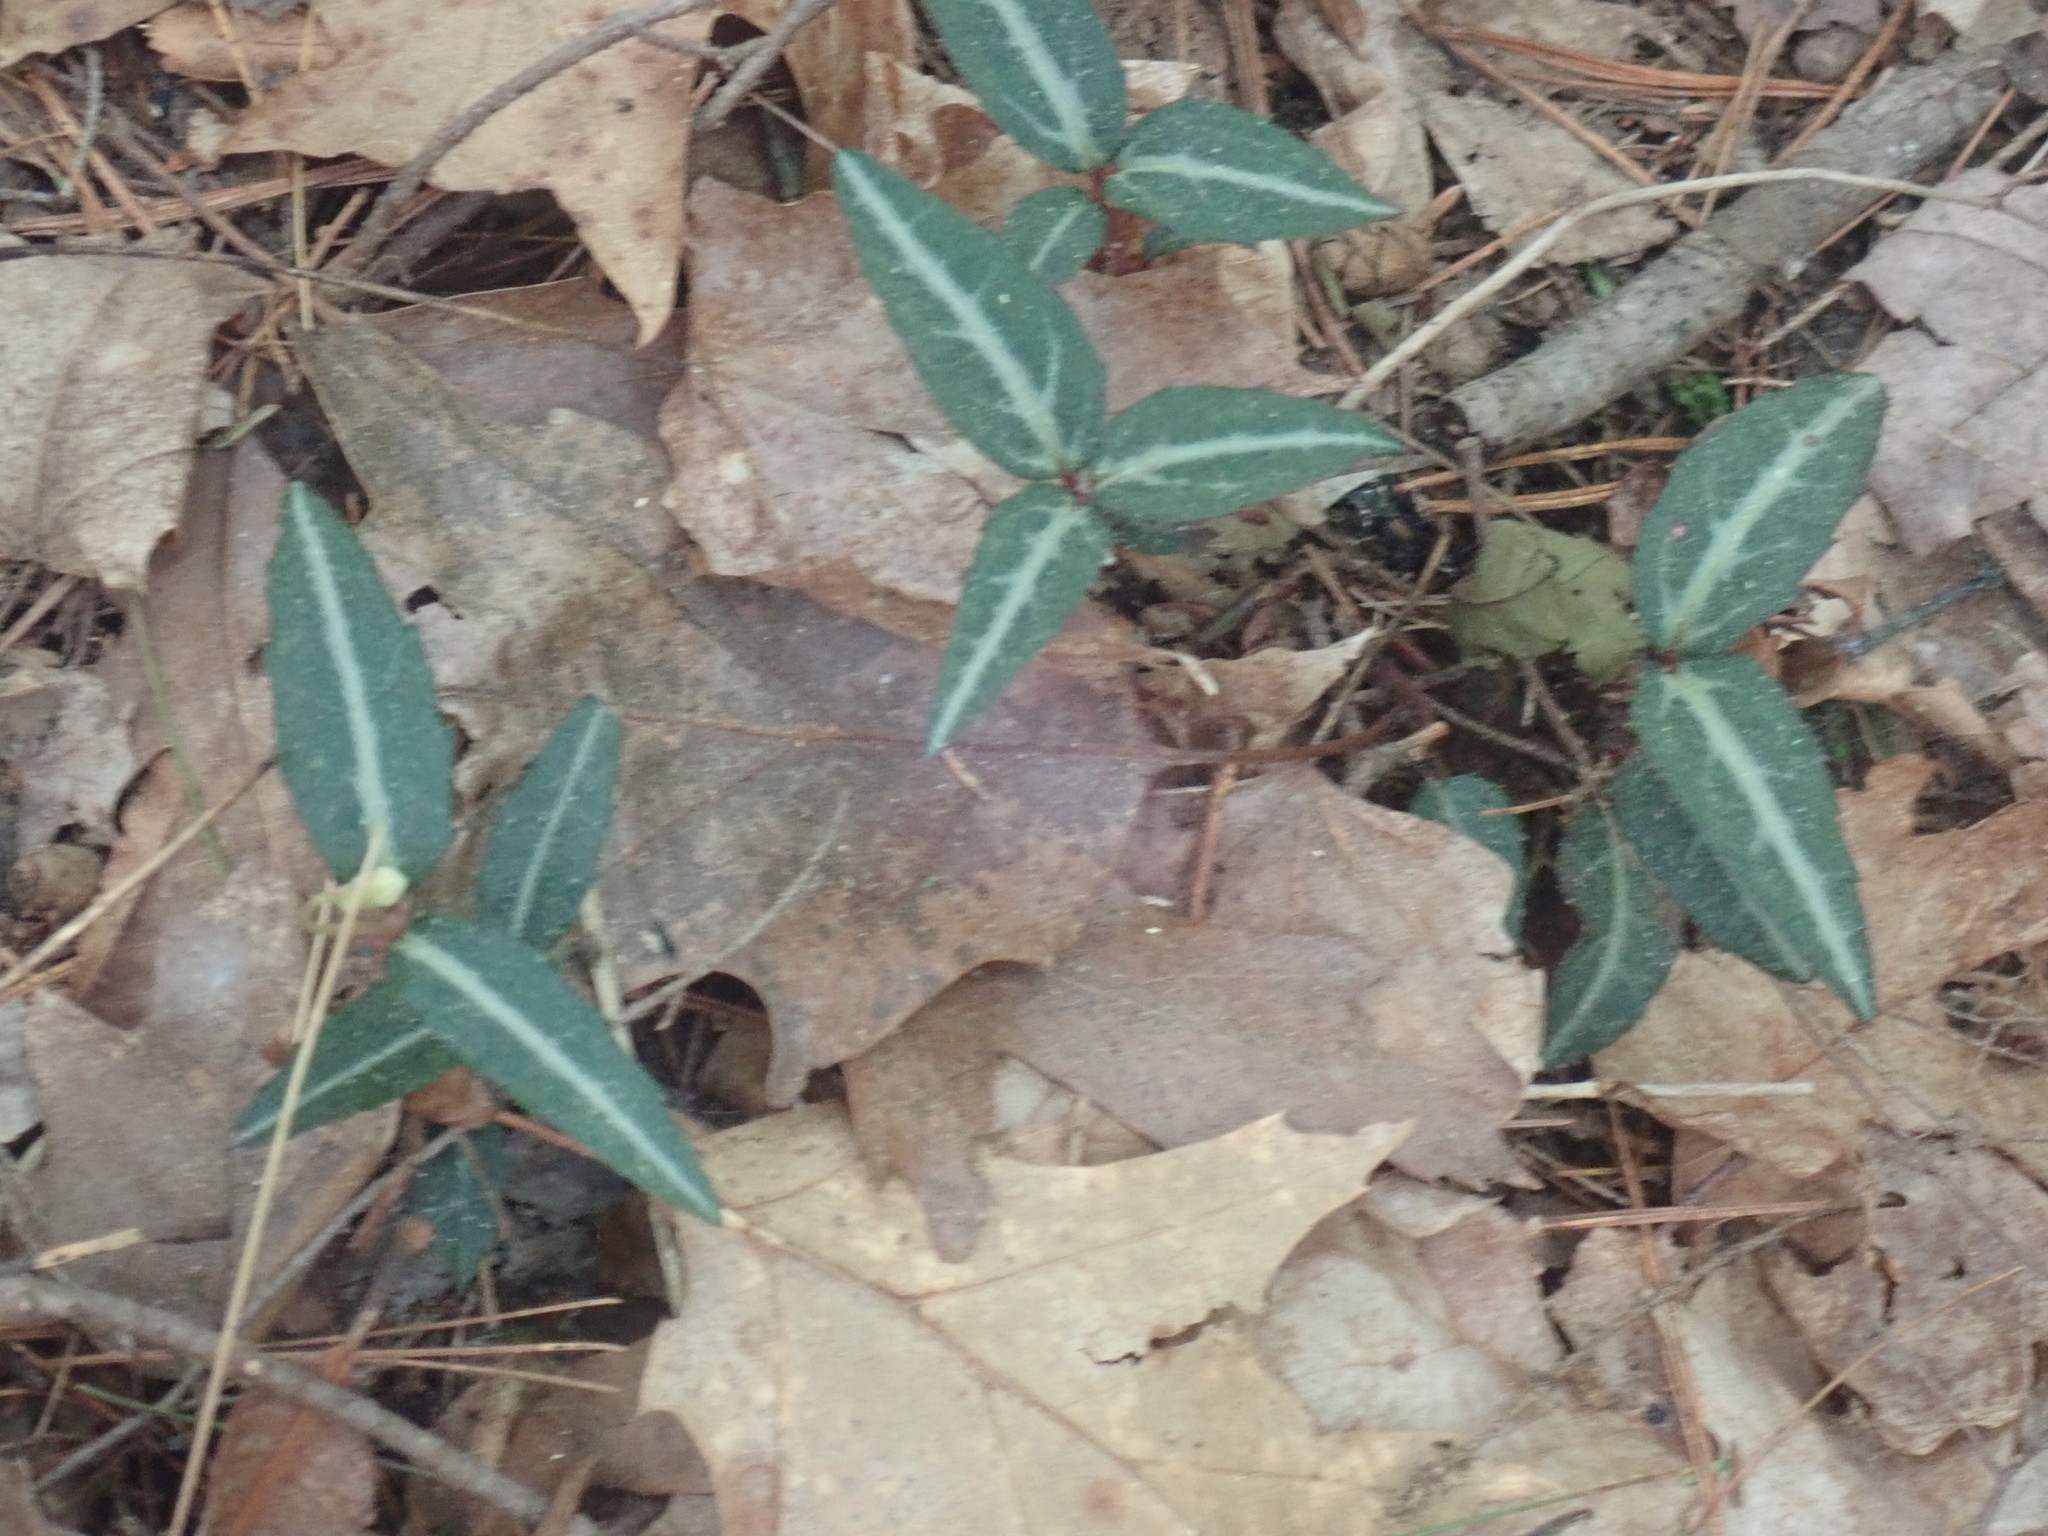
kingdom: Plantae
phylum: Tracheophyta
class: Magnoliopsida
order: Ericales
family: Ericaceae
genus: Chimaphila
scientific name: Chimaphila maculata
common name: Spotted pipsissewa
